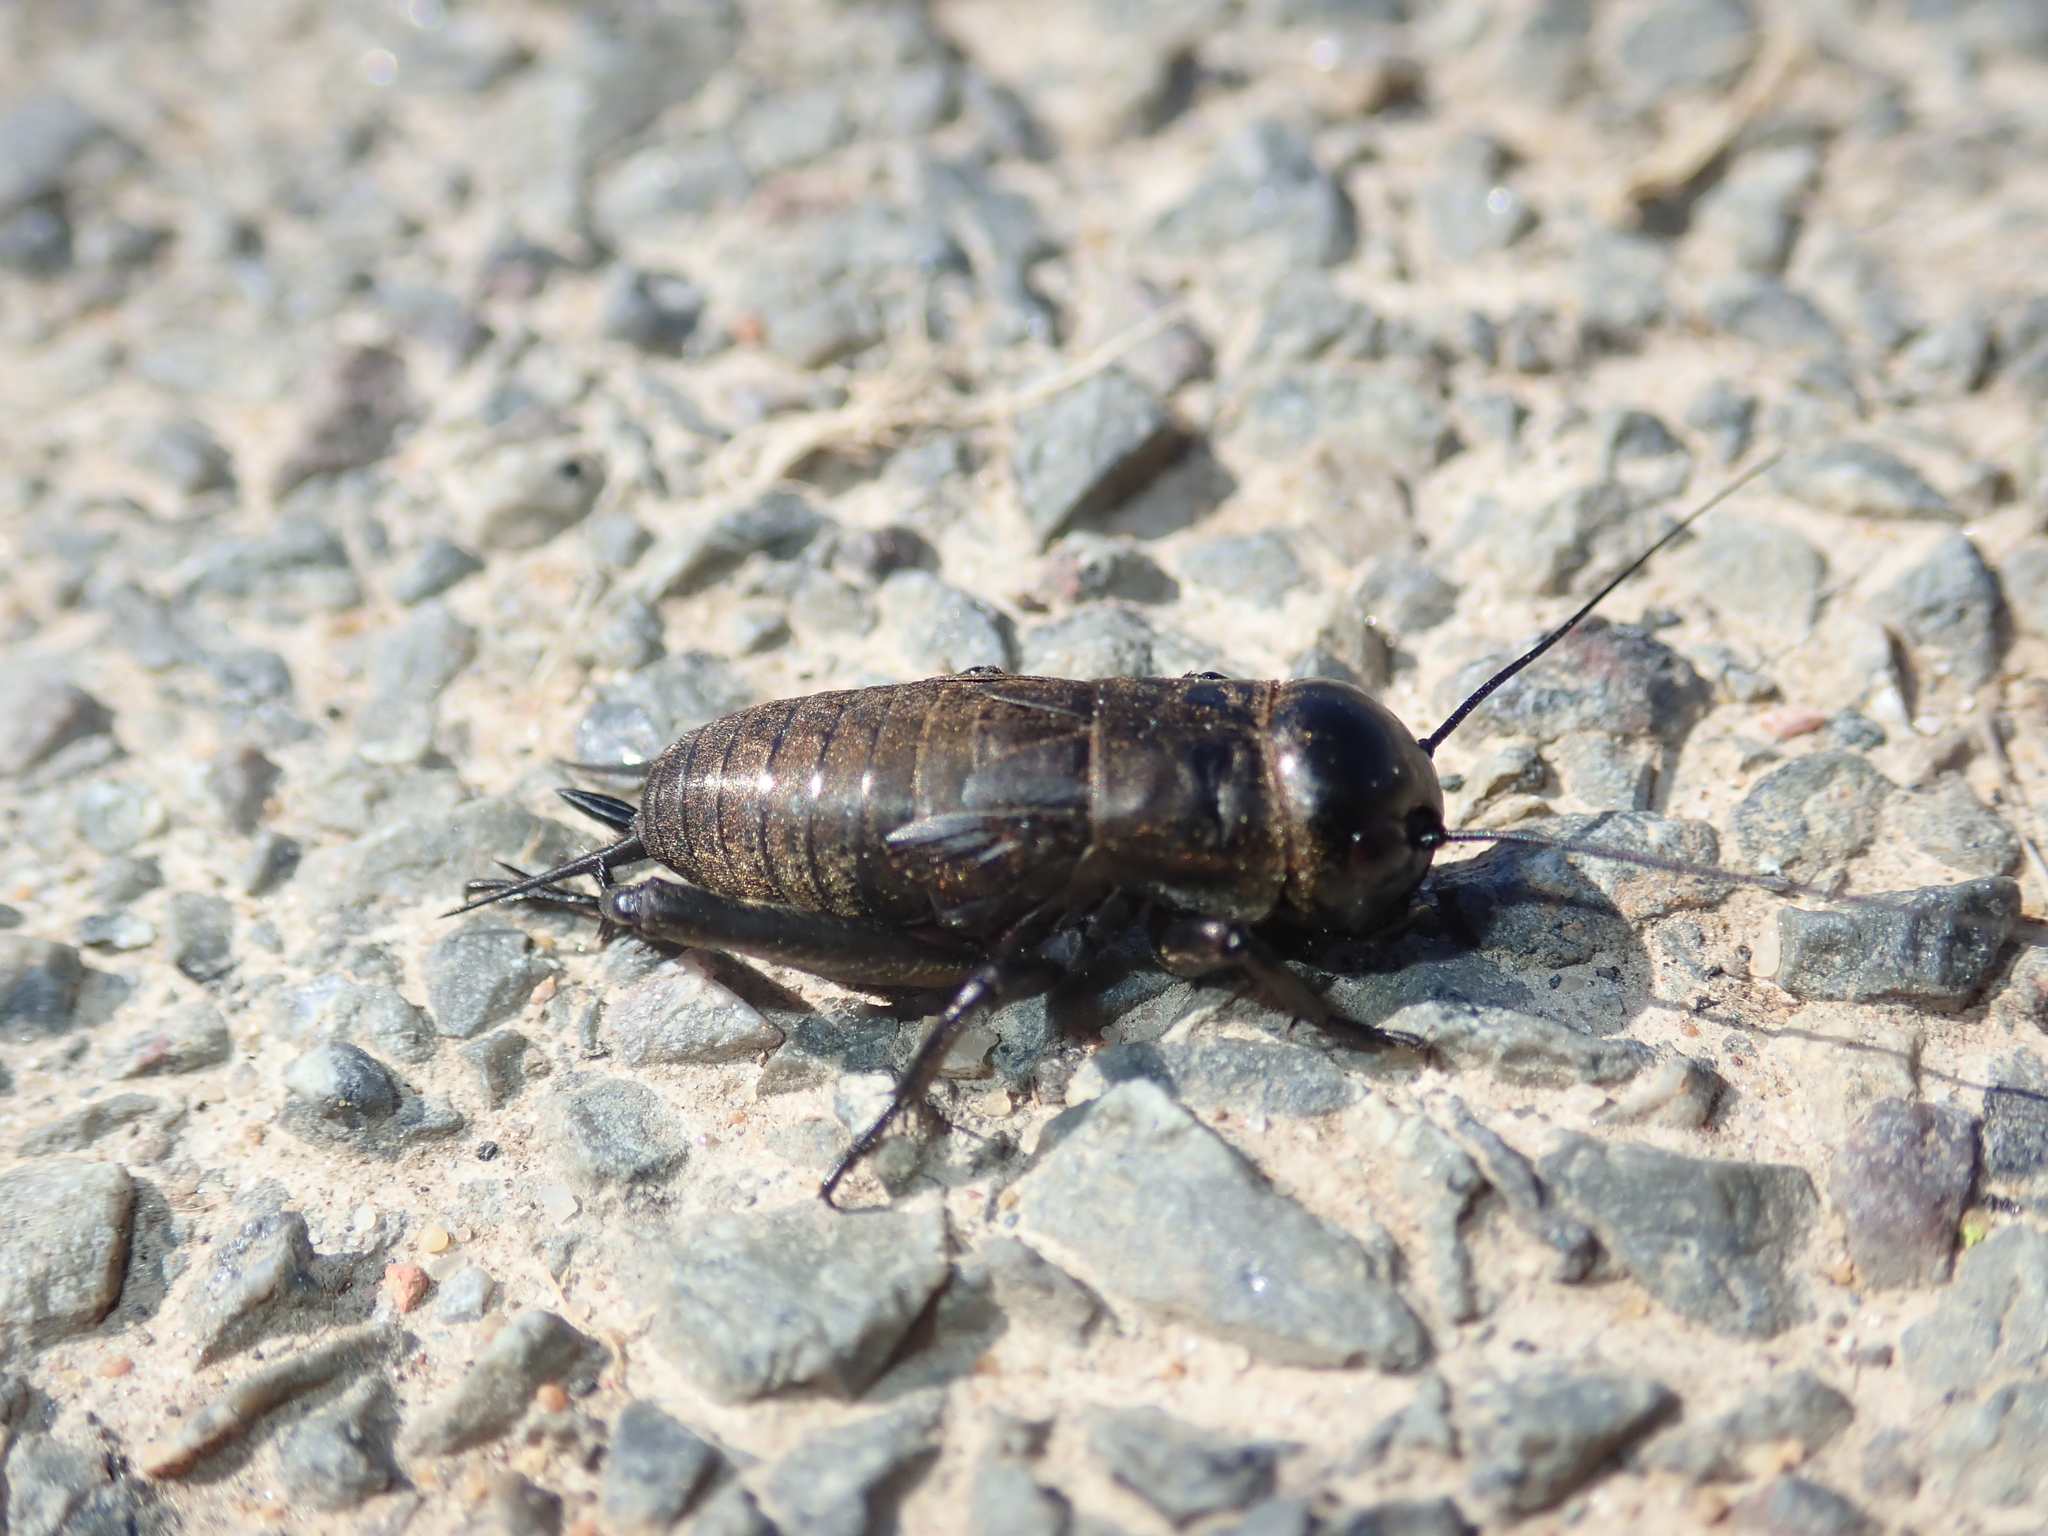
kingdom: Animalia
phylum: Arthropoda
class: Insecta
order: Orthoptera
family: Gryllidae
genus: Gryllus
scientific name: Gryllus campestris
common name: Field cricket
